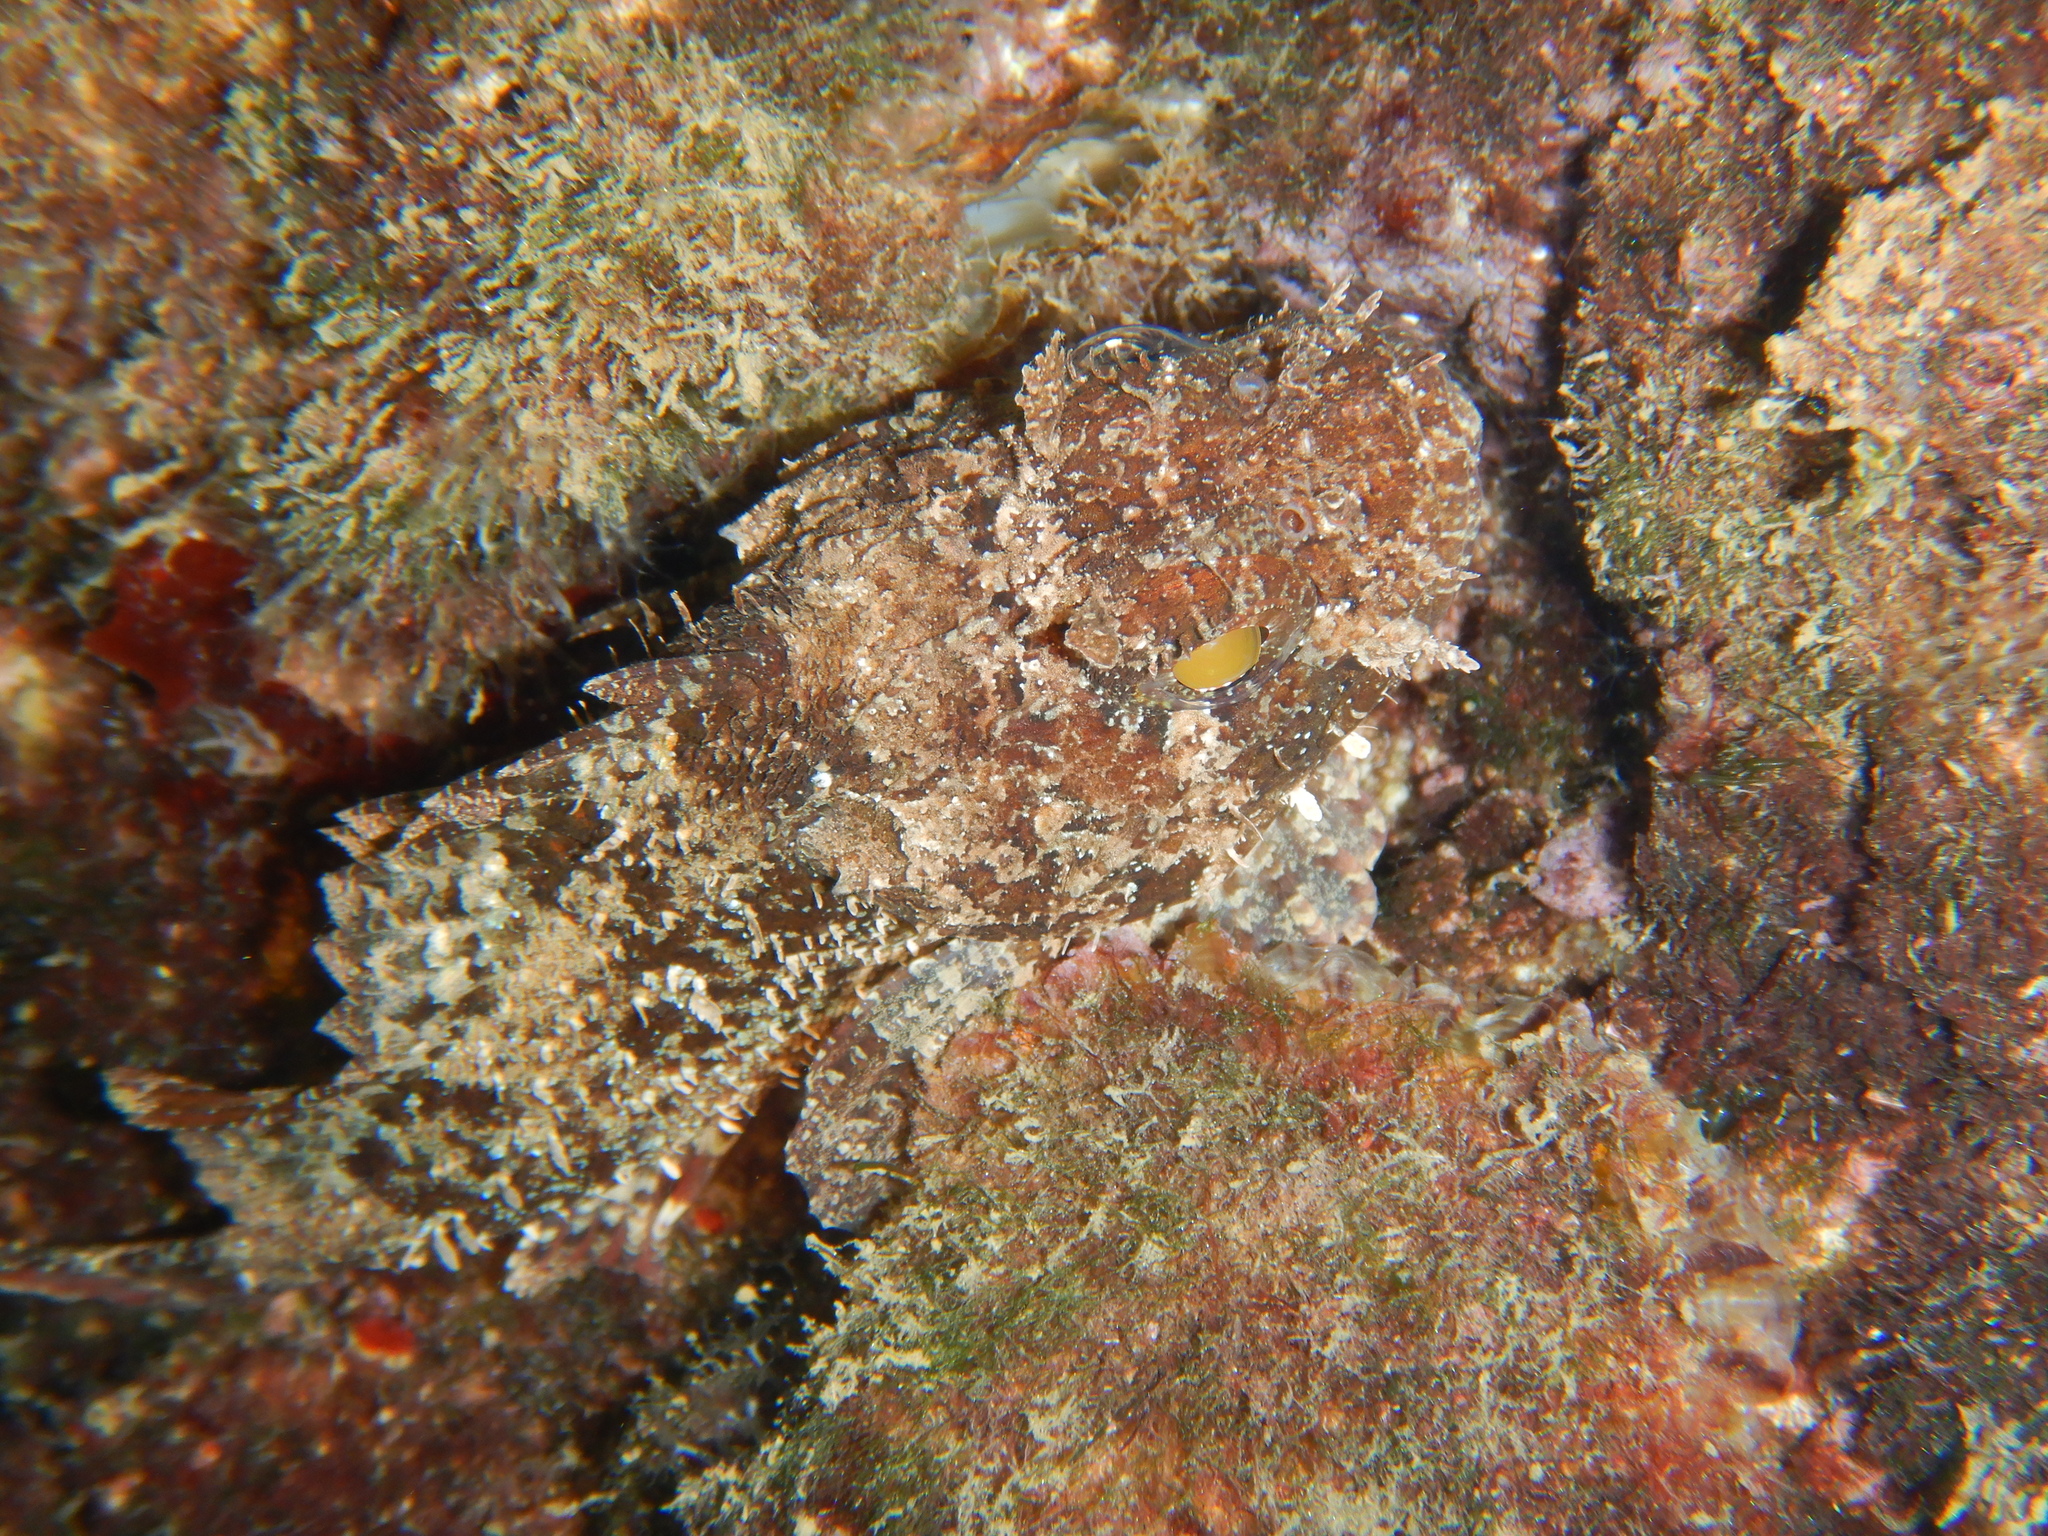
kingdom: Animalia
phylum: Chordata
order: Scorpaeniformes
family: Scorpaenidae
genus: Scorpaena
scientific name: Scorpaena porcus
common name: Black scorpionfish
